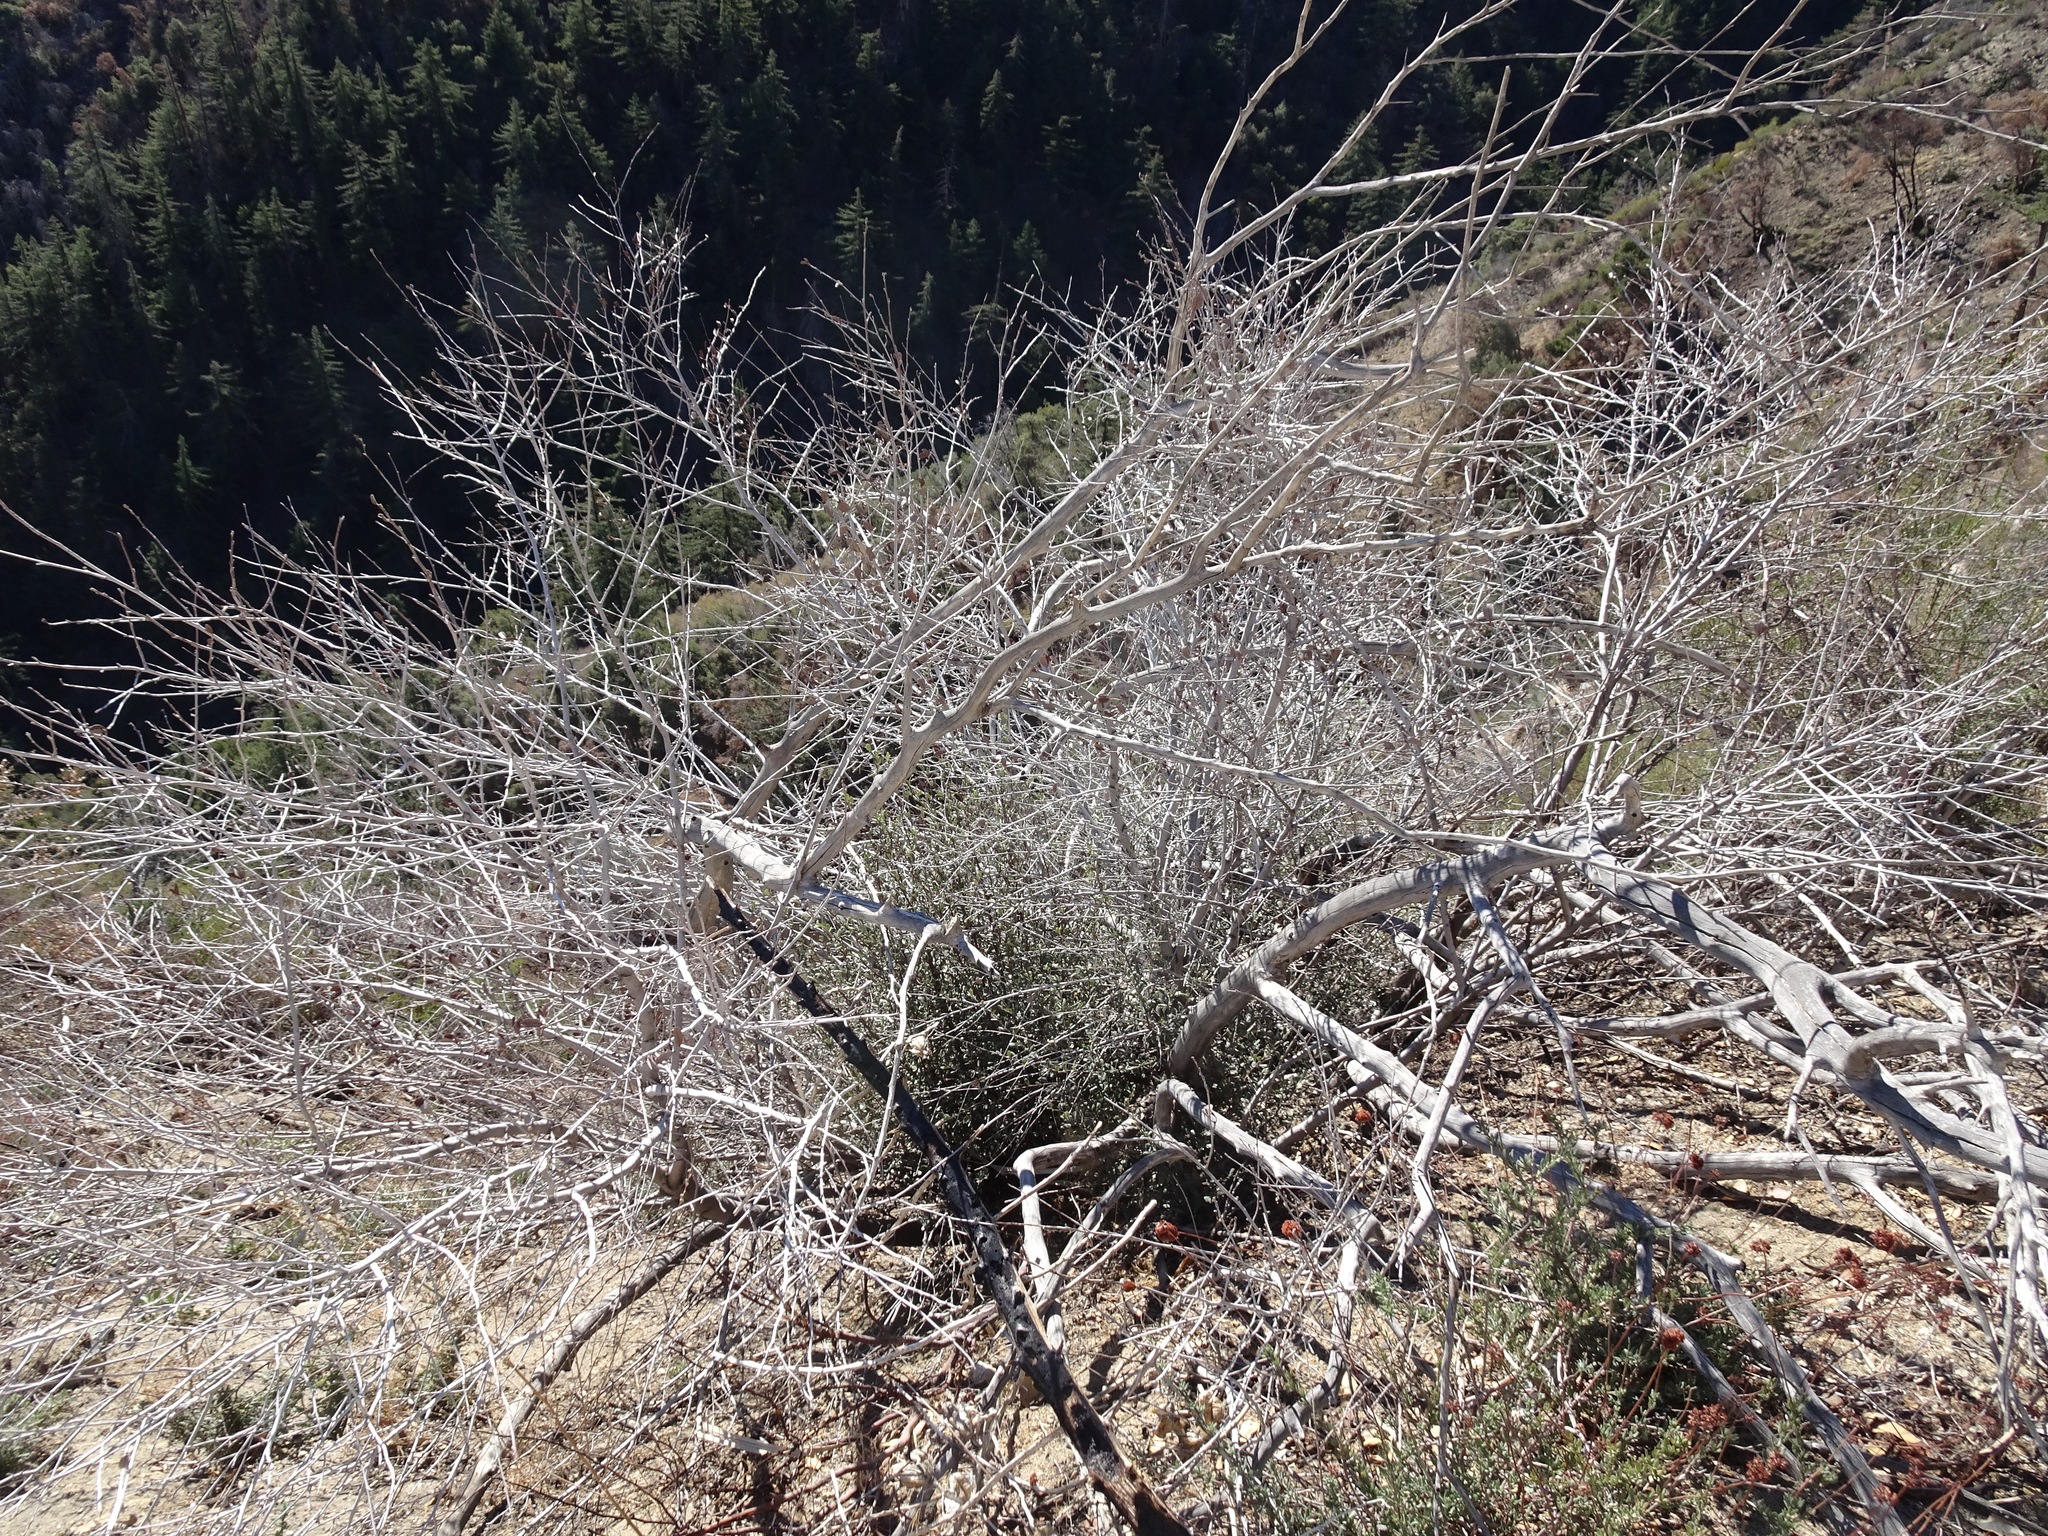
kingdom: Plantae
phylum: Tracheophyta
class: Magnoliopsida
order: Rosales
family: Rosaceae
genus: Cercocarpus
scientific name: Cercocarpus betuloides
